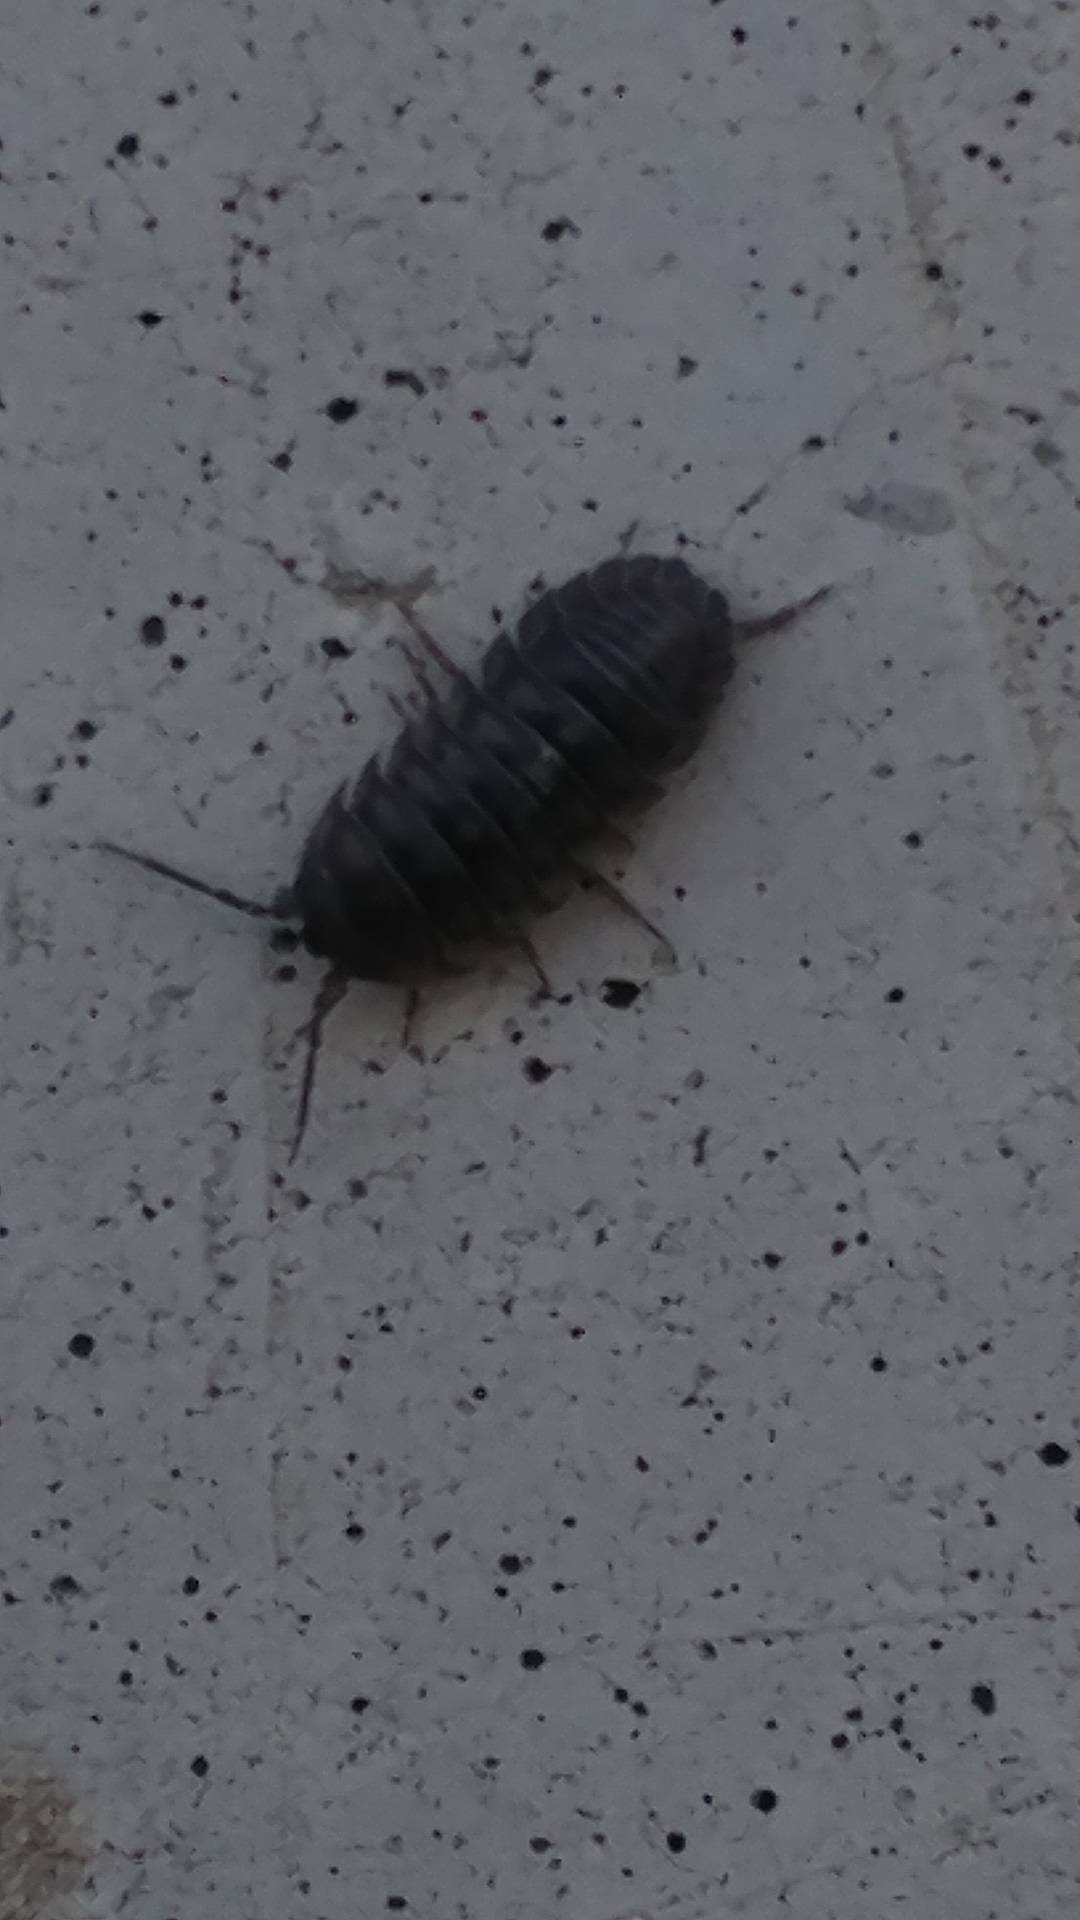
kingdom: Animalia
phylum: Arthropoda
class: Malacostraca
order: Isopoda
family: Armadillidiidae
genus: Armadillidium
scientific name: Armadillidium nasatum
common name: Isopod
